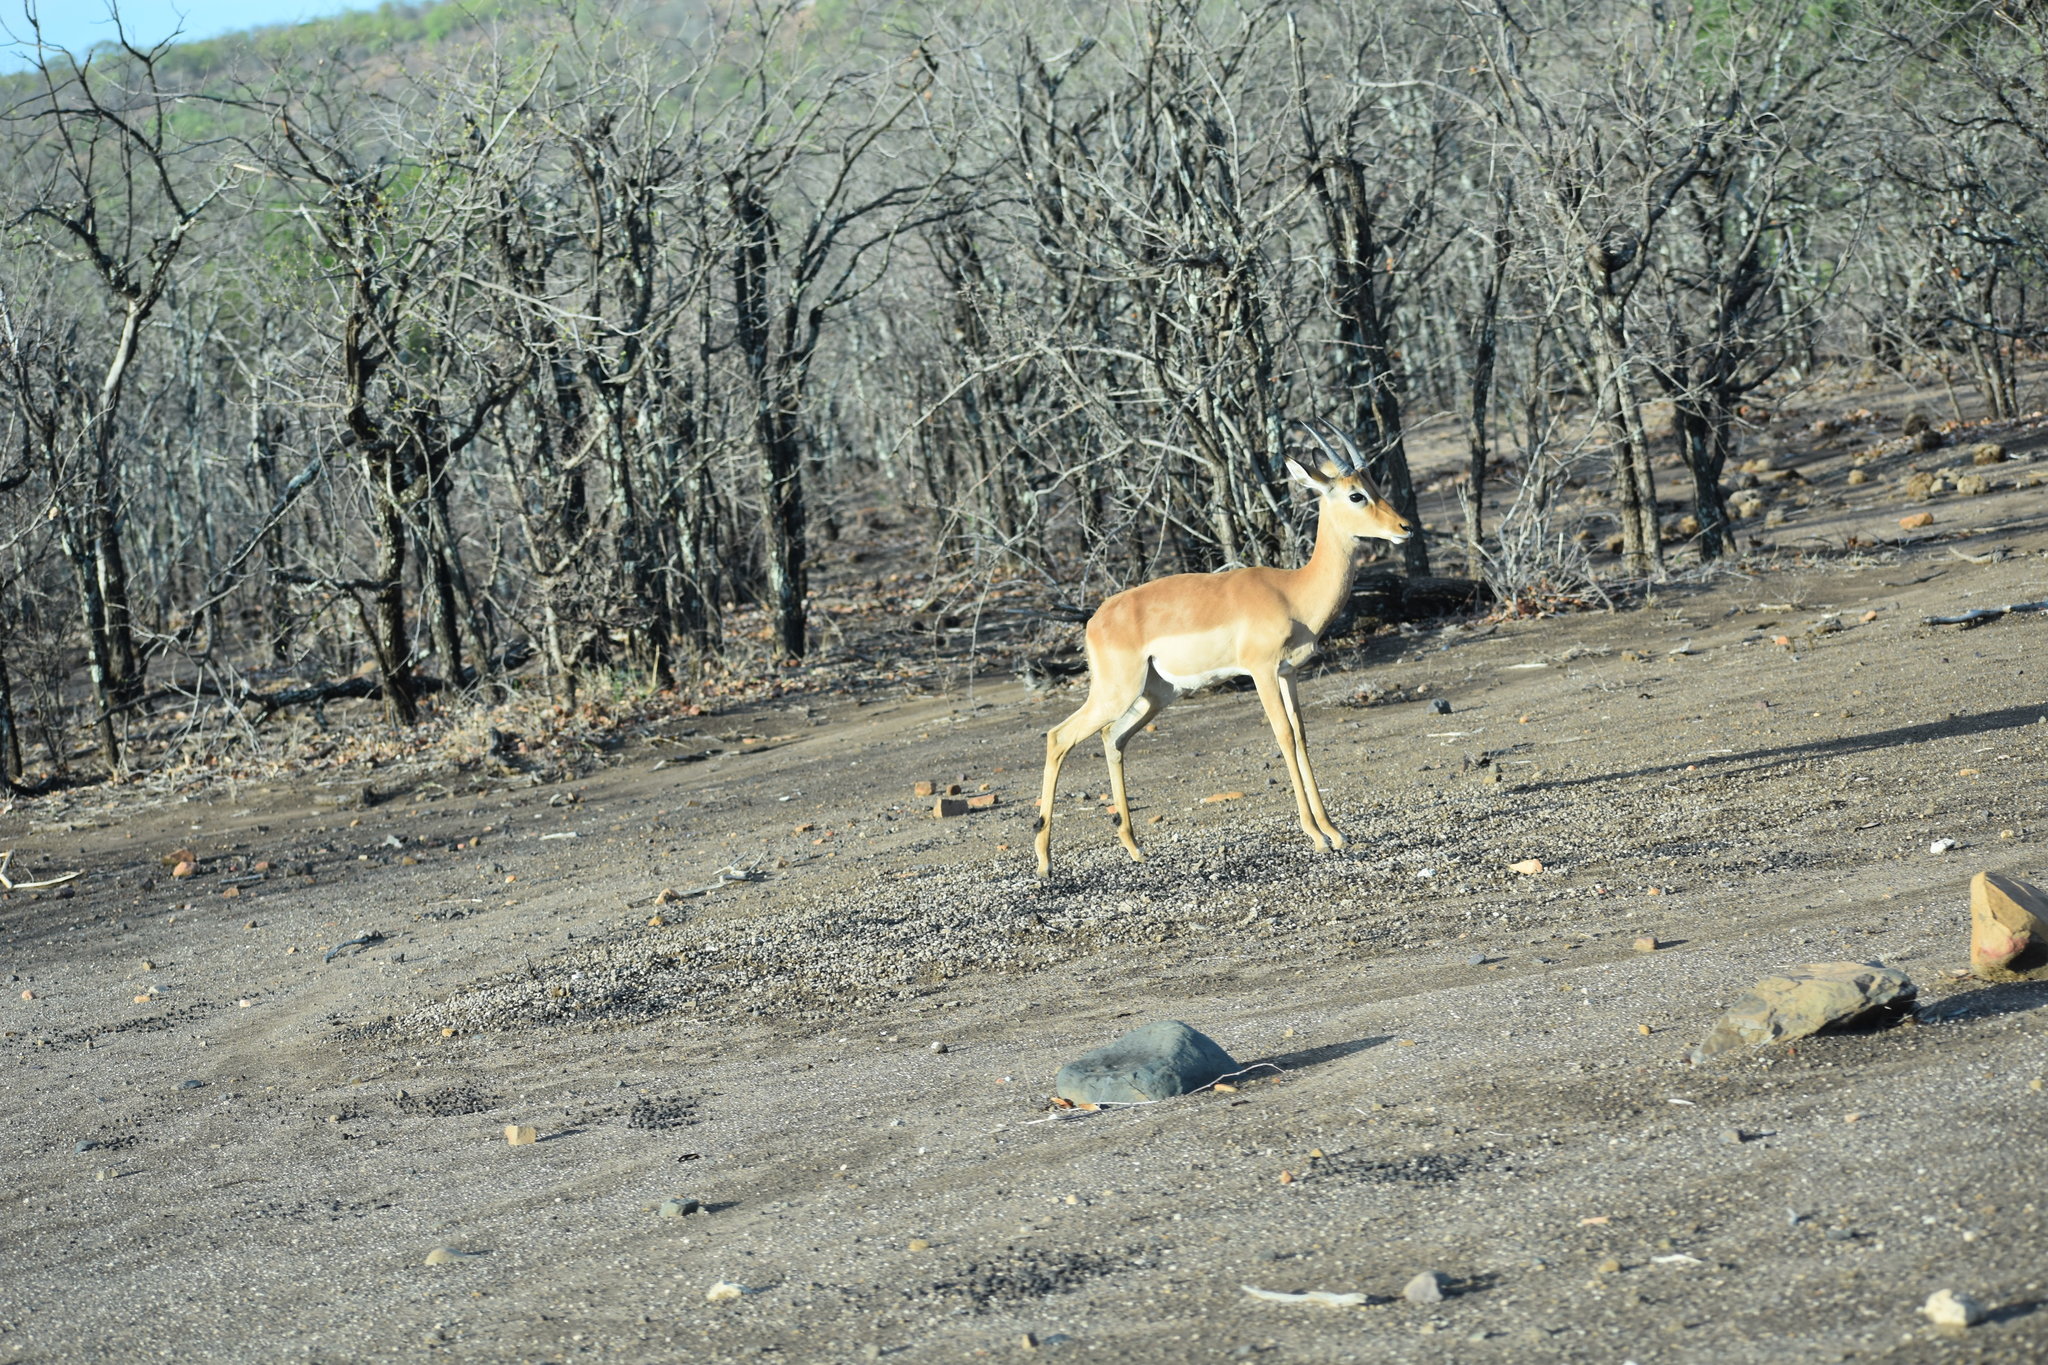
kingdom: Animalia
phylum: Chordata
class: Mammalia
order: Artiodactyla
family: Bovidae
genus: Aepyceros
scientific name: Aepyceros melampus
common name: Impala
